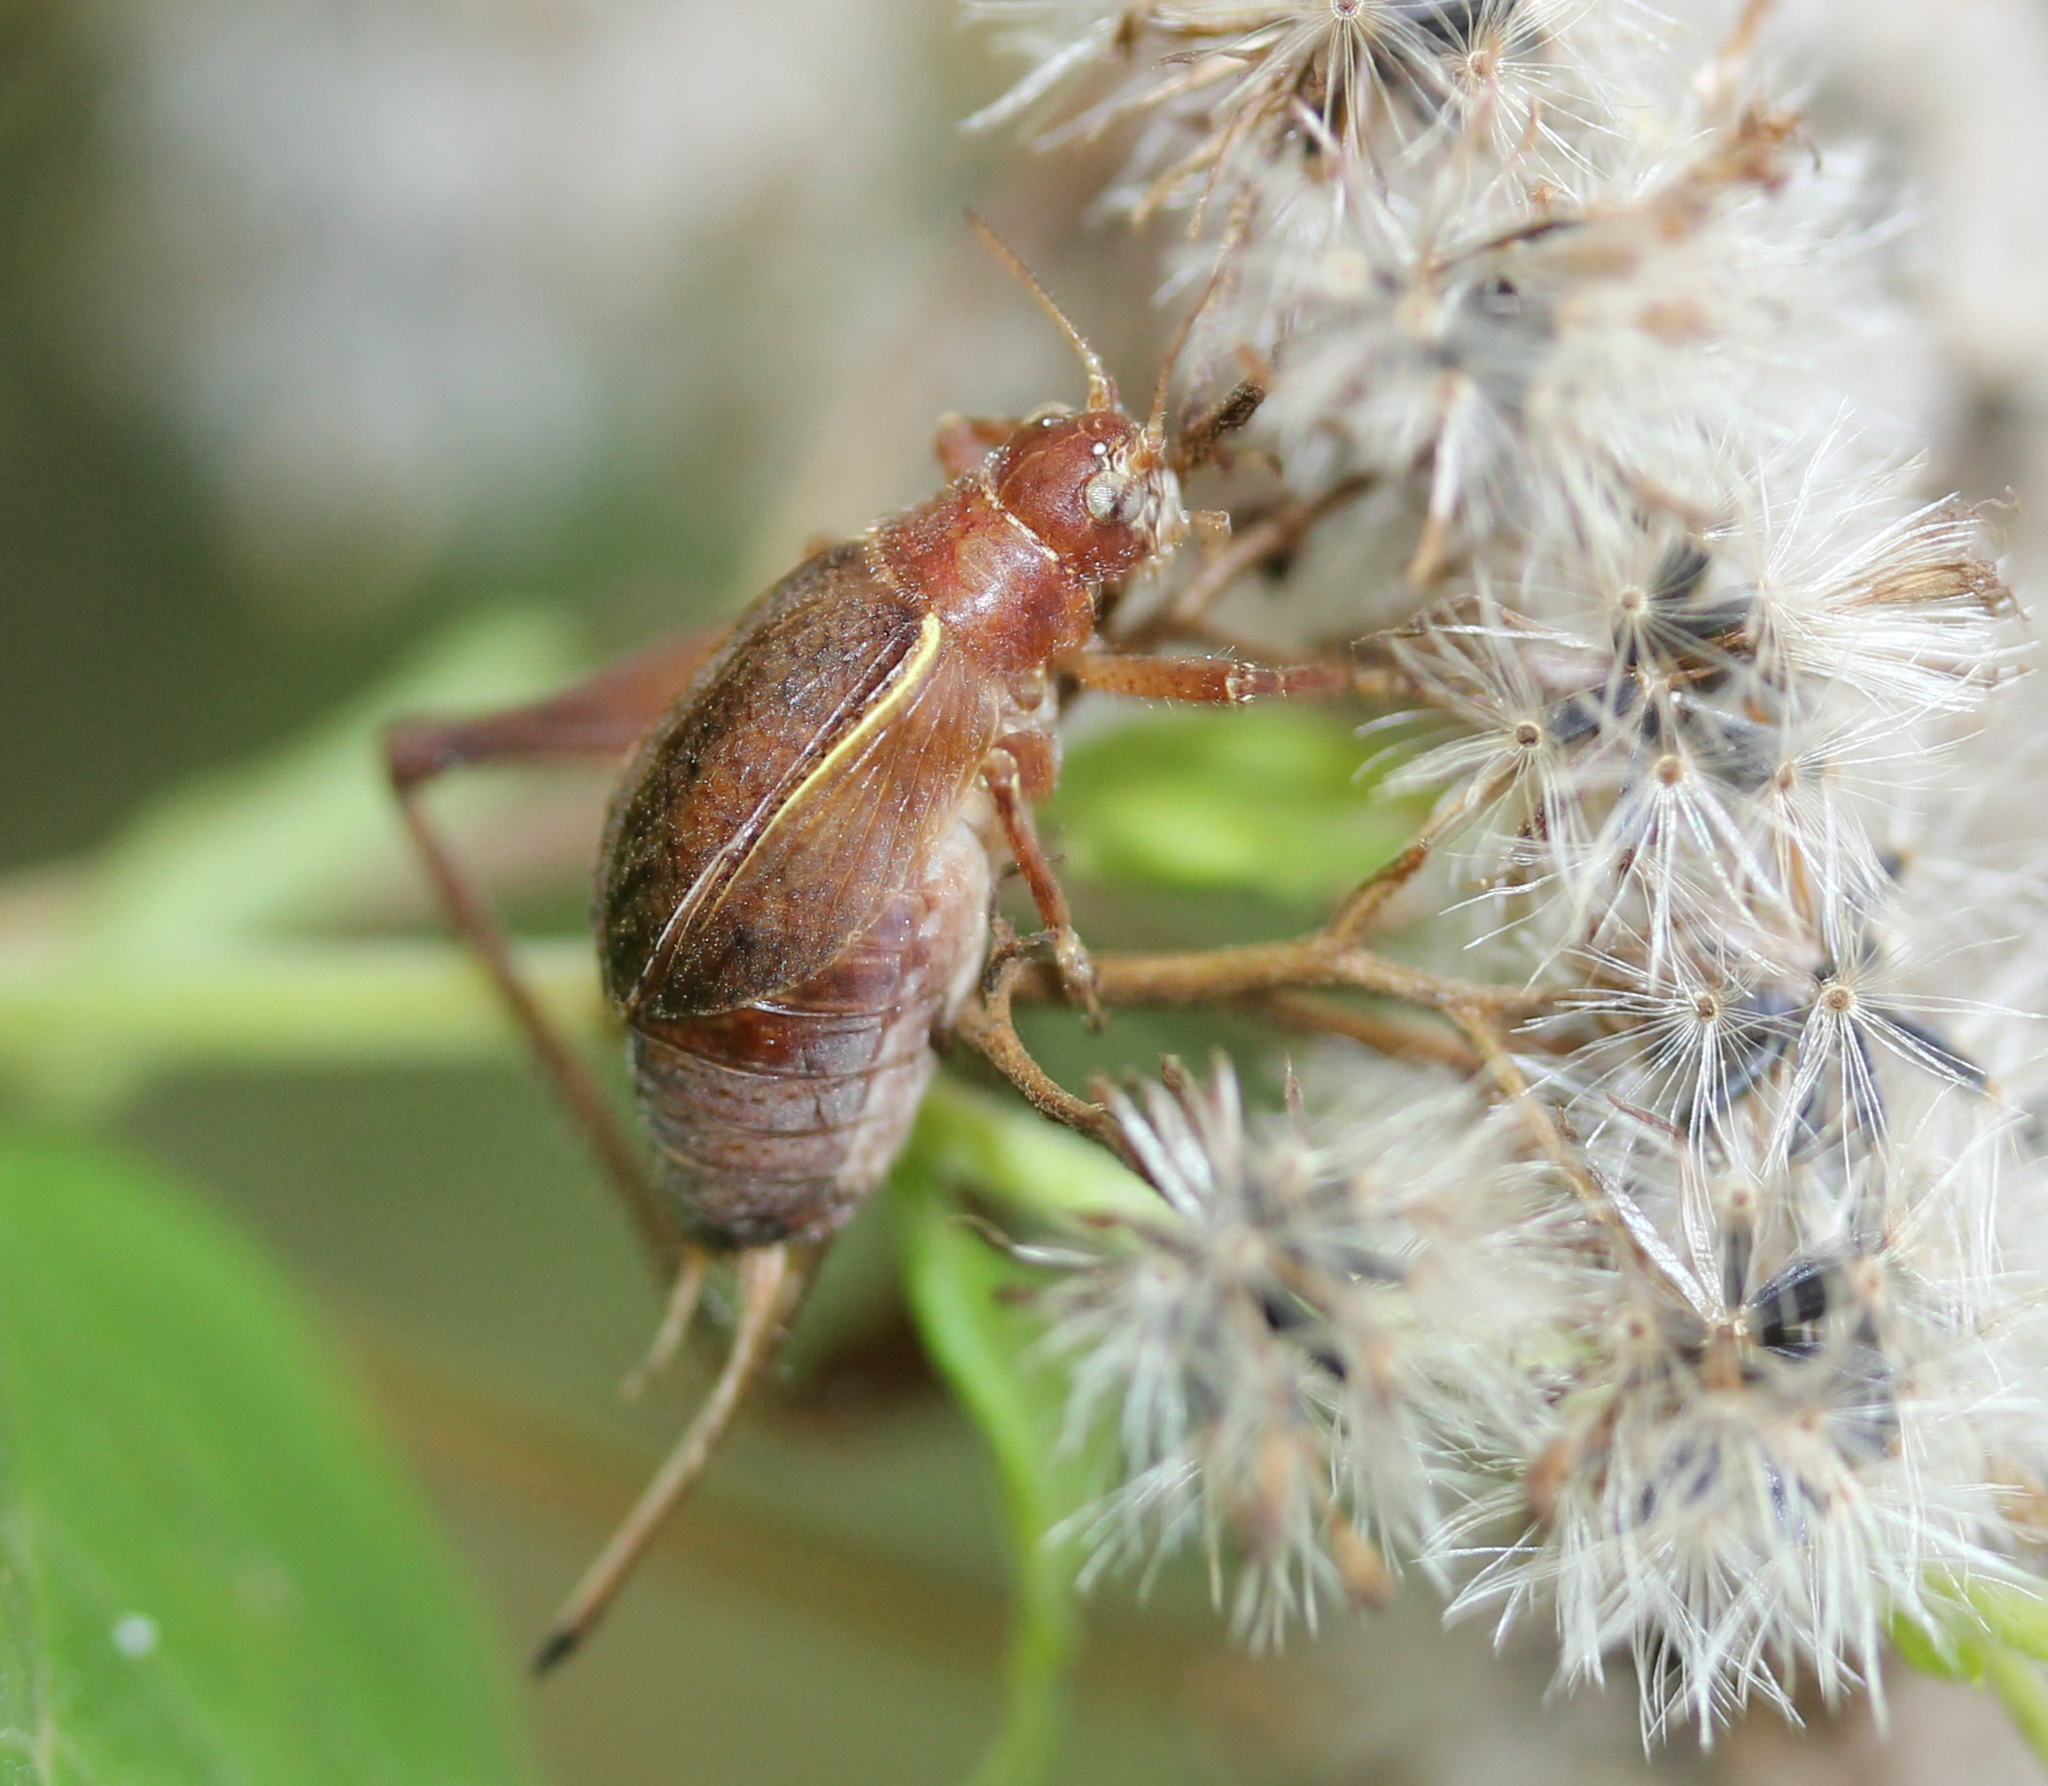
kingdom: Animalia
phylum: Arthropoda
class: Insecta
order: Orthoptera
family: Gryllidae
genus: Hapithus
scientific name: Hapithus agitator
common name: Restless bush cricket
